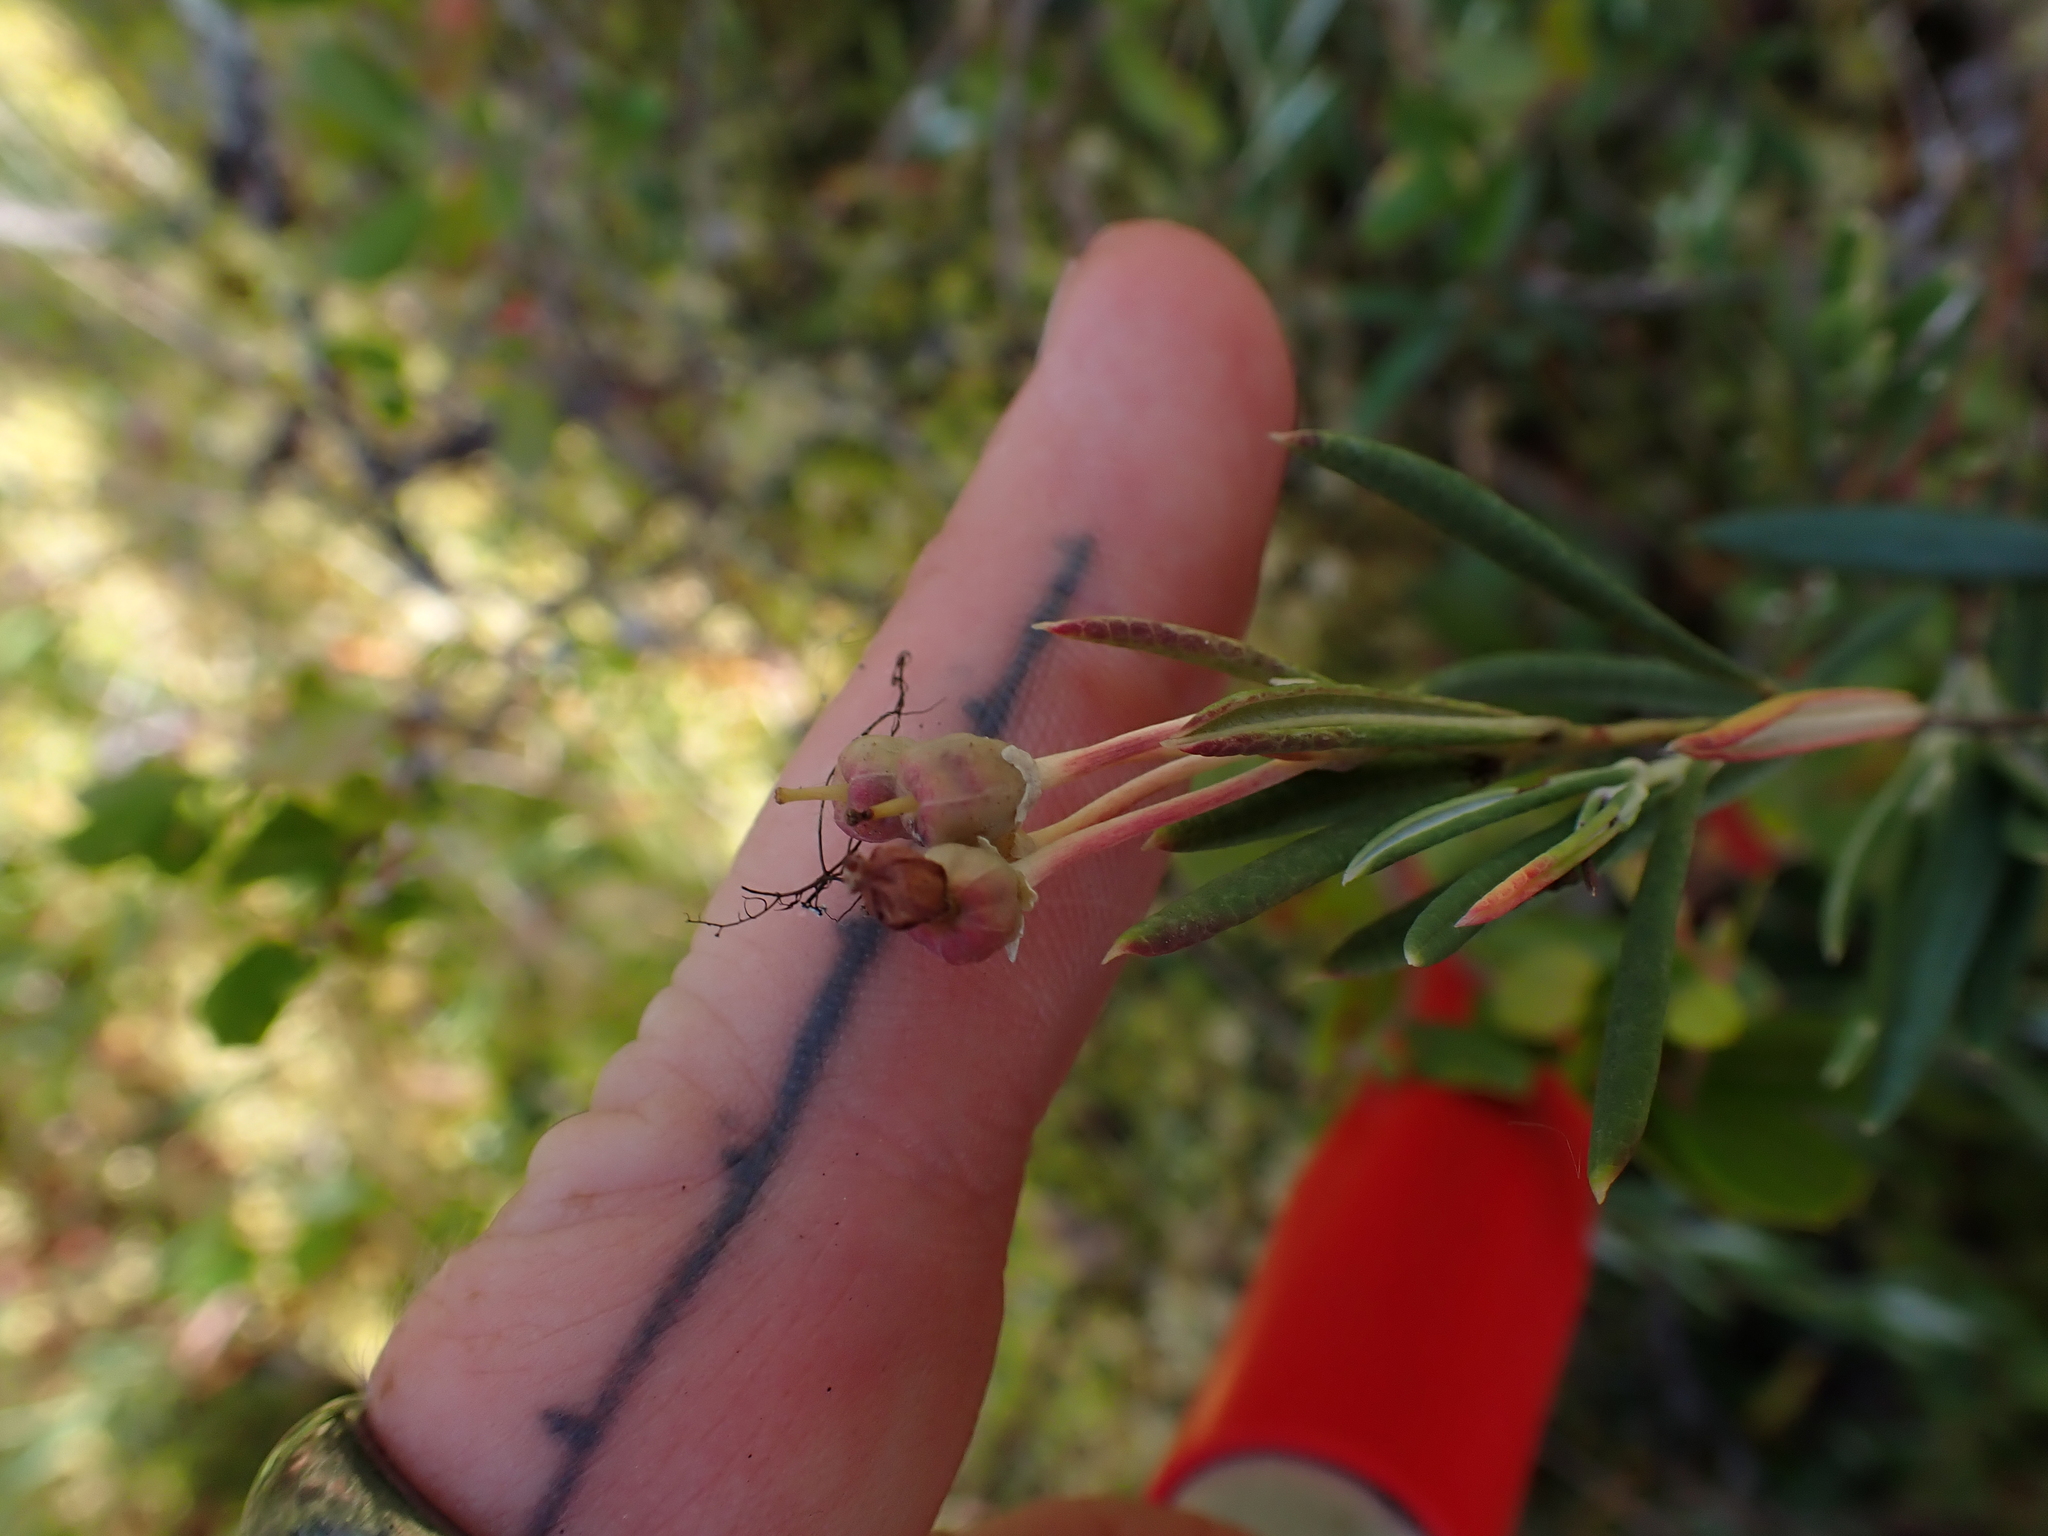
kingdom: Plantae
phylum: Tracheophyta
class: Magnoliopsida
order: Ericales
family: Ericaceae
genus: Andromeda
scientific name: Andromeda polifolia
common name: Bog-rosemary
